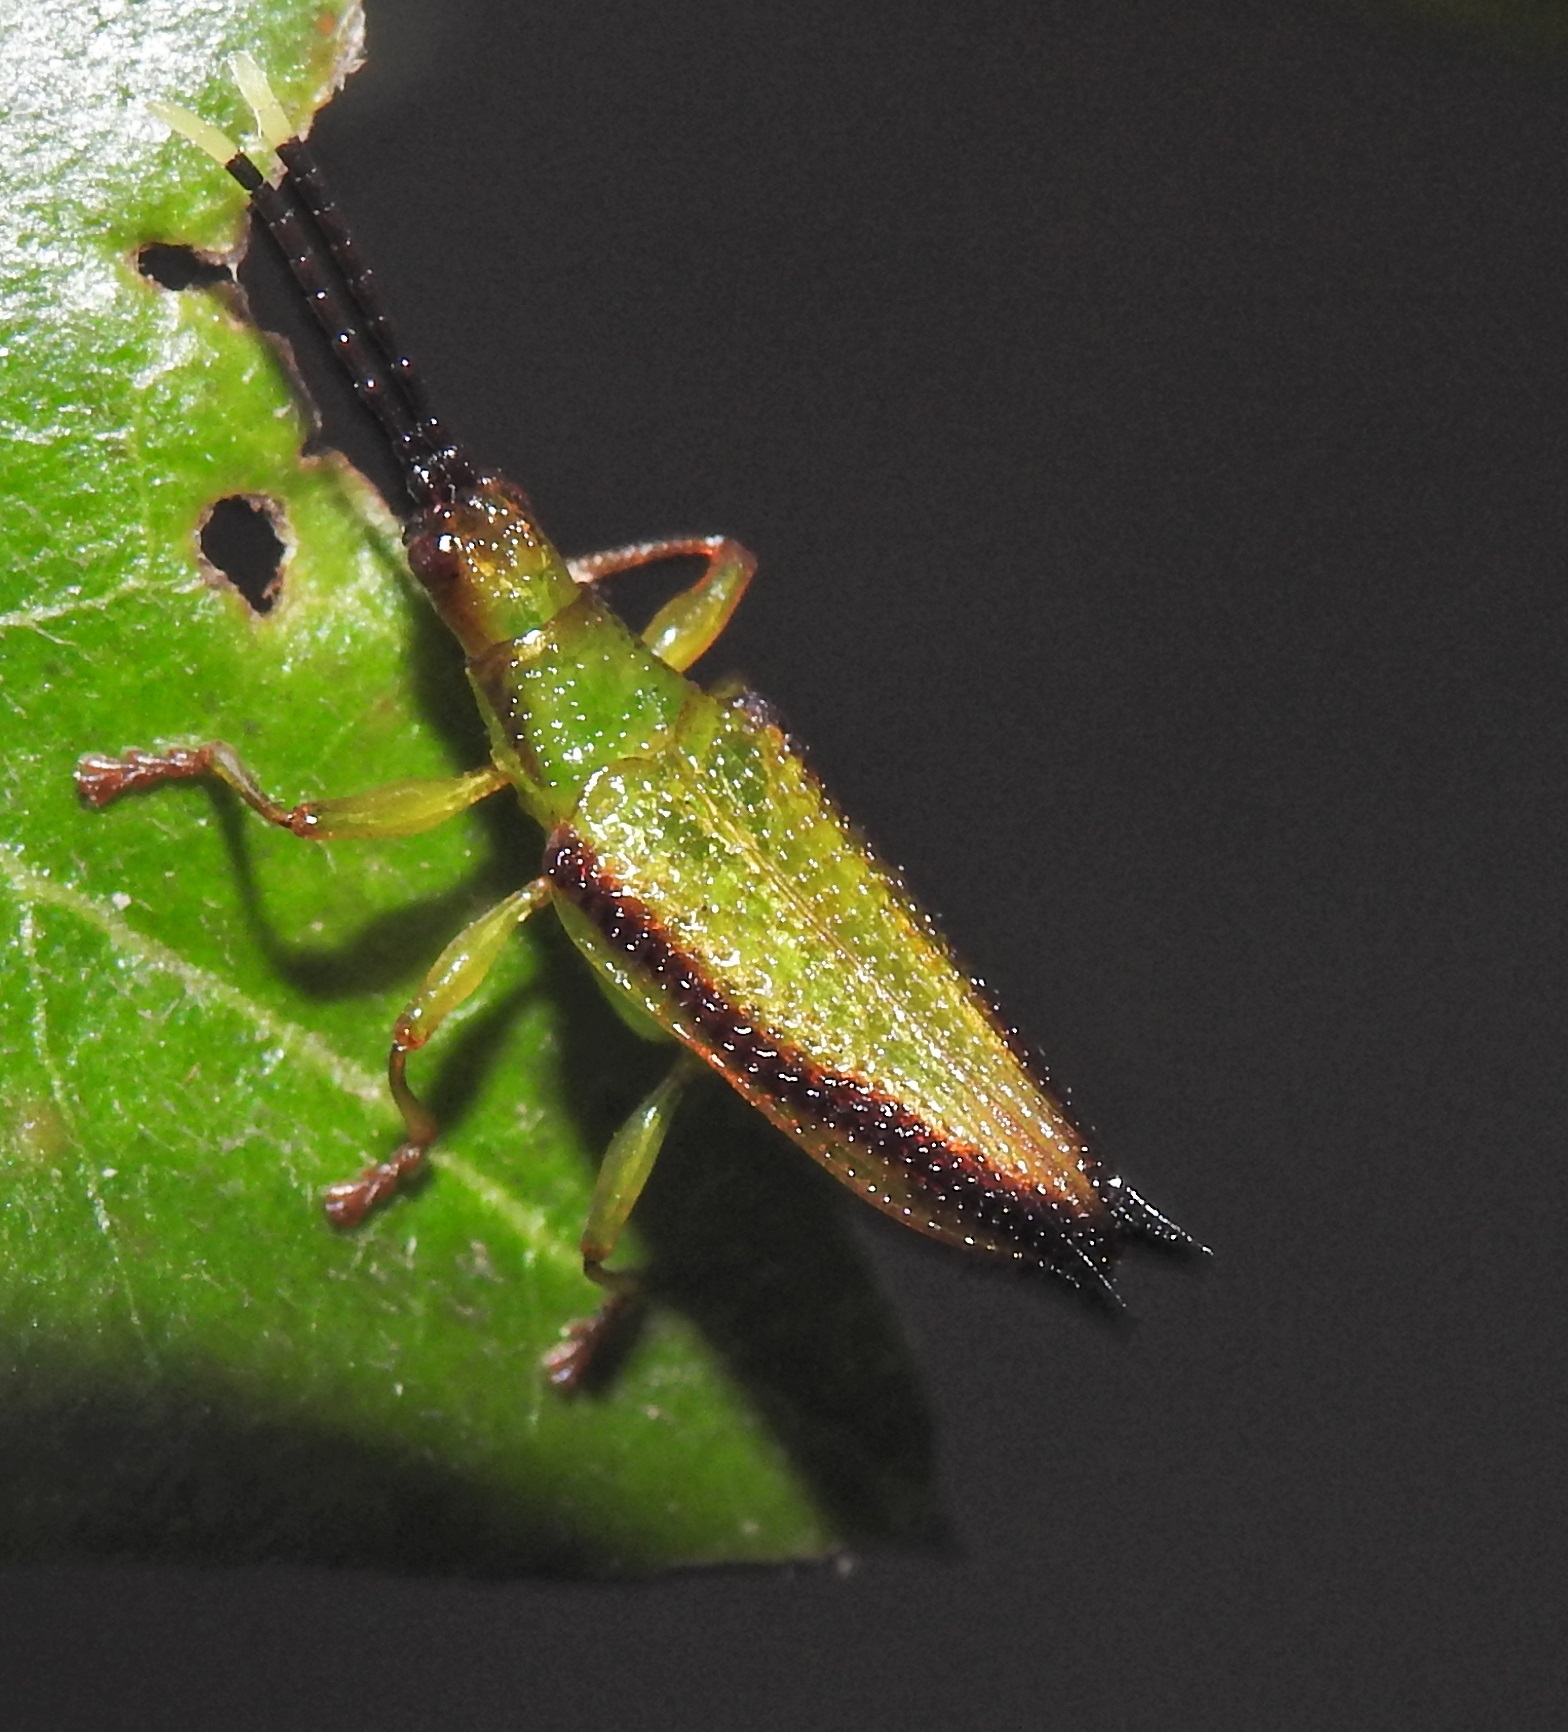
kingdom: Animalia
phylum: Arthropoda
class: Insecta
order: Coleoptera
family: Chrysomelidae
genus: Aproida
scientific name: Aproida balyi
